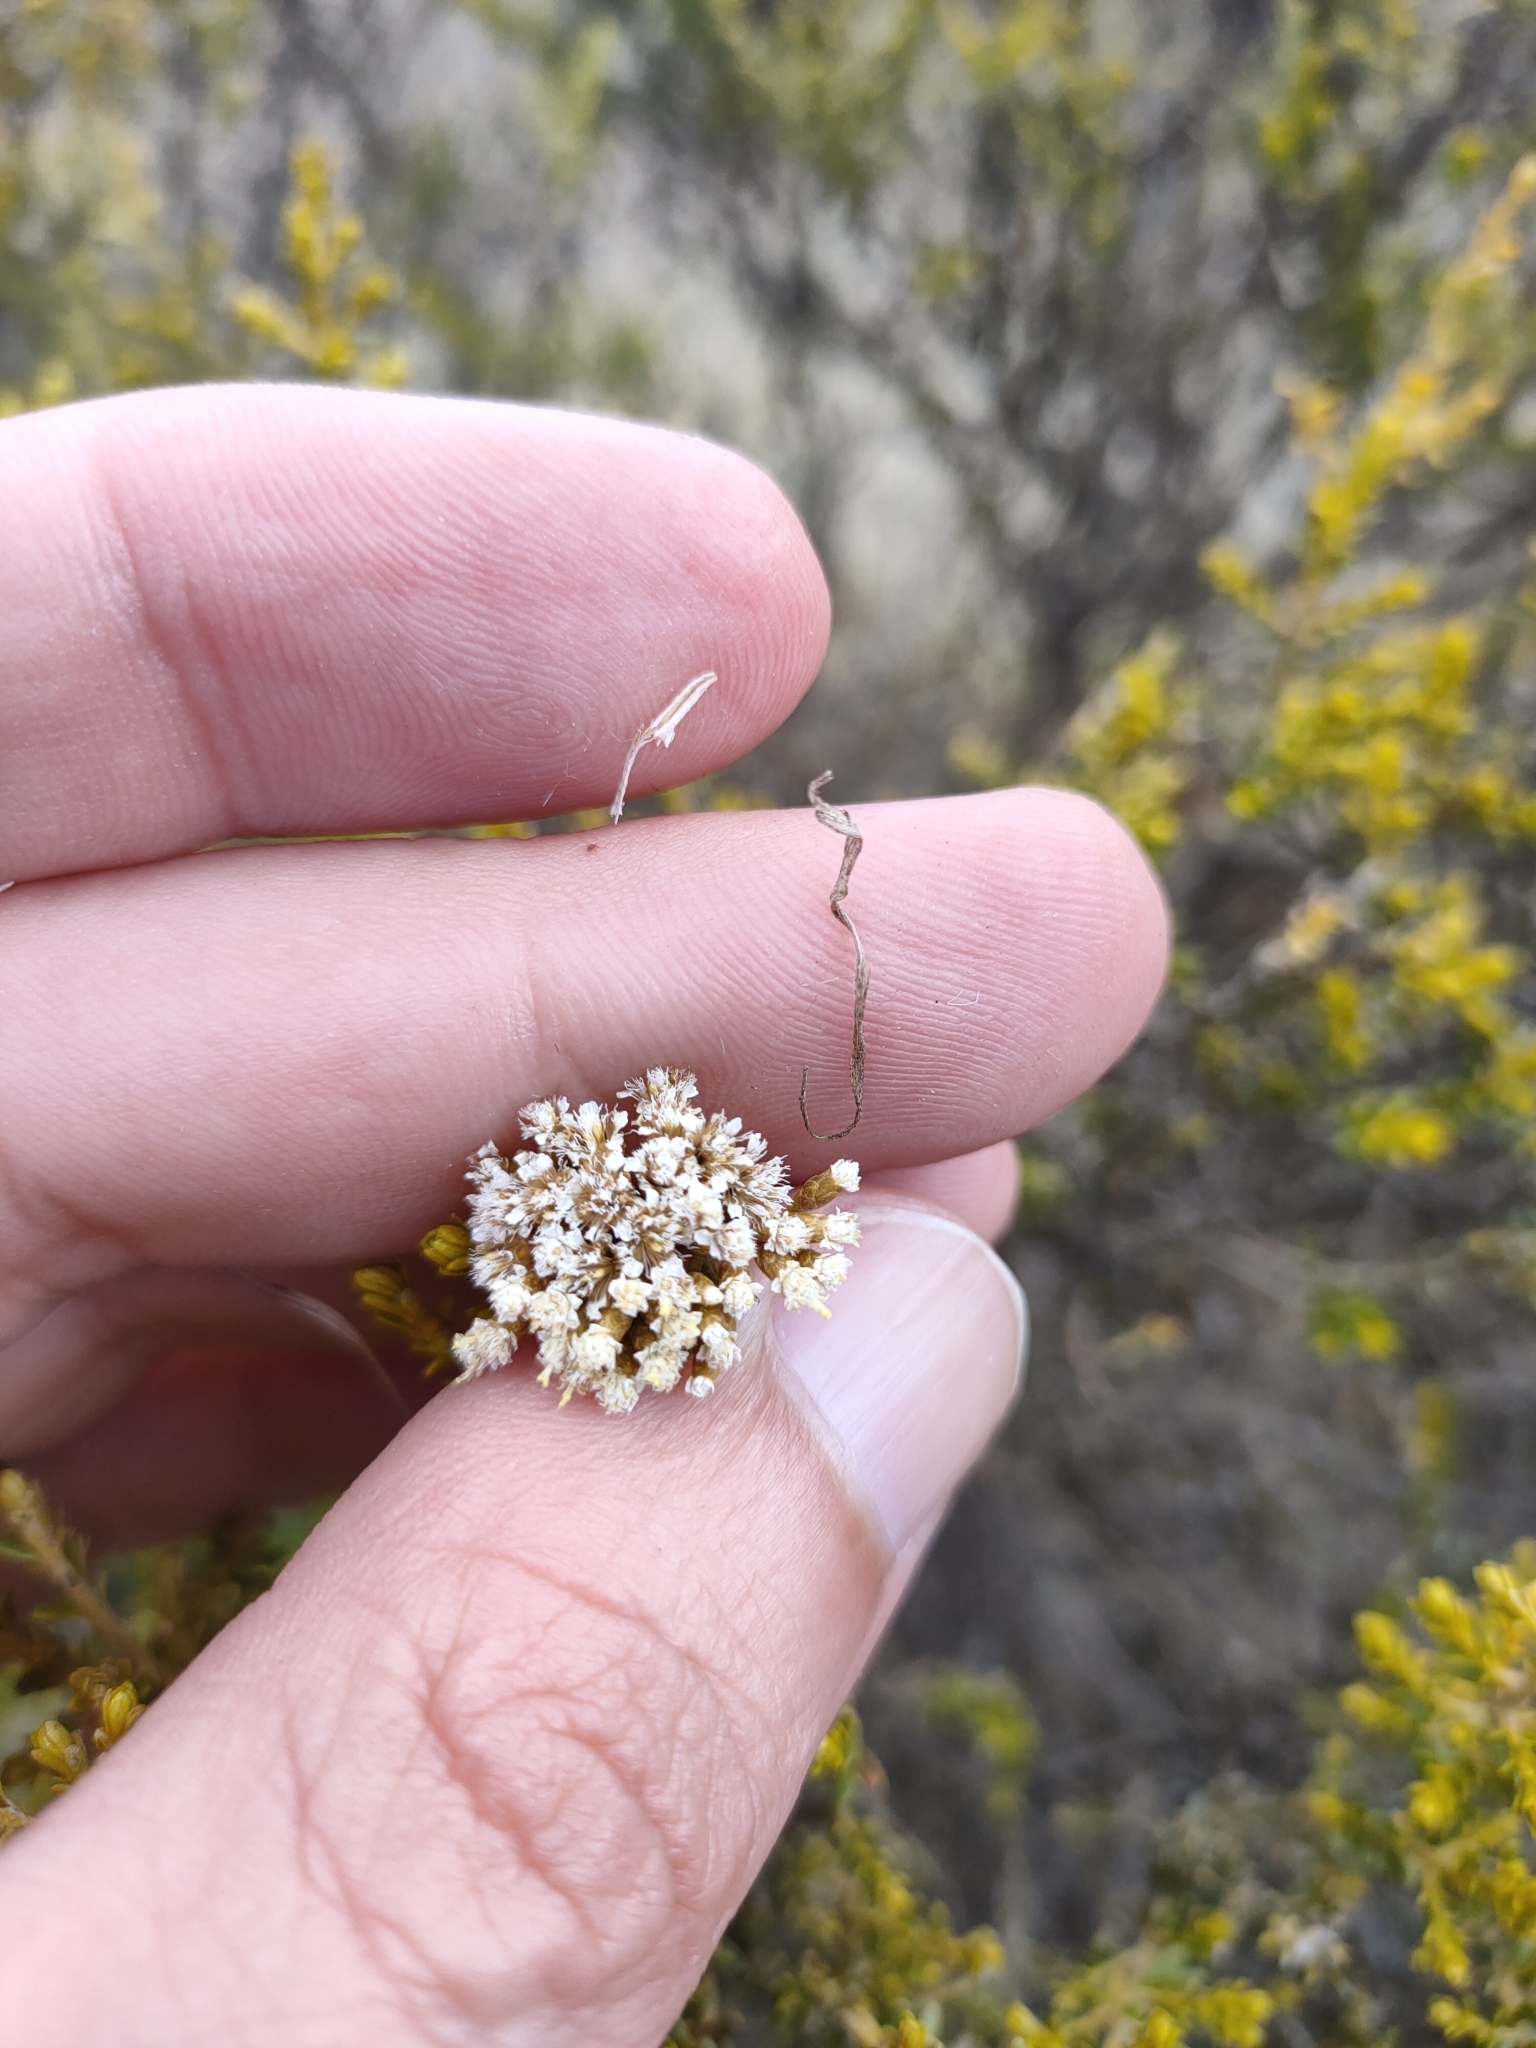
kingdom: Plantae
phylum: Tracheophyta
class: Magnoliopsida
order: Asterales
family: Asteraceae
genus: Ozothamnus
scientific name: Ozothamnus leptophyllus
